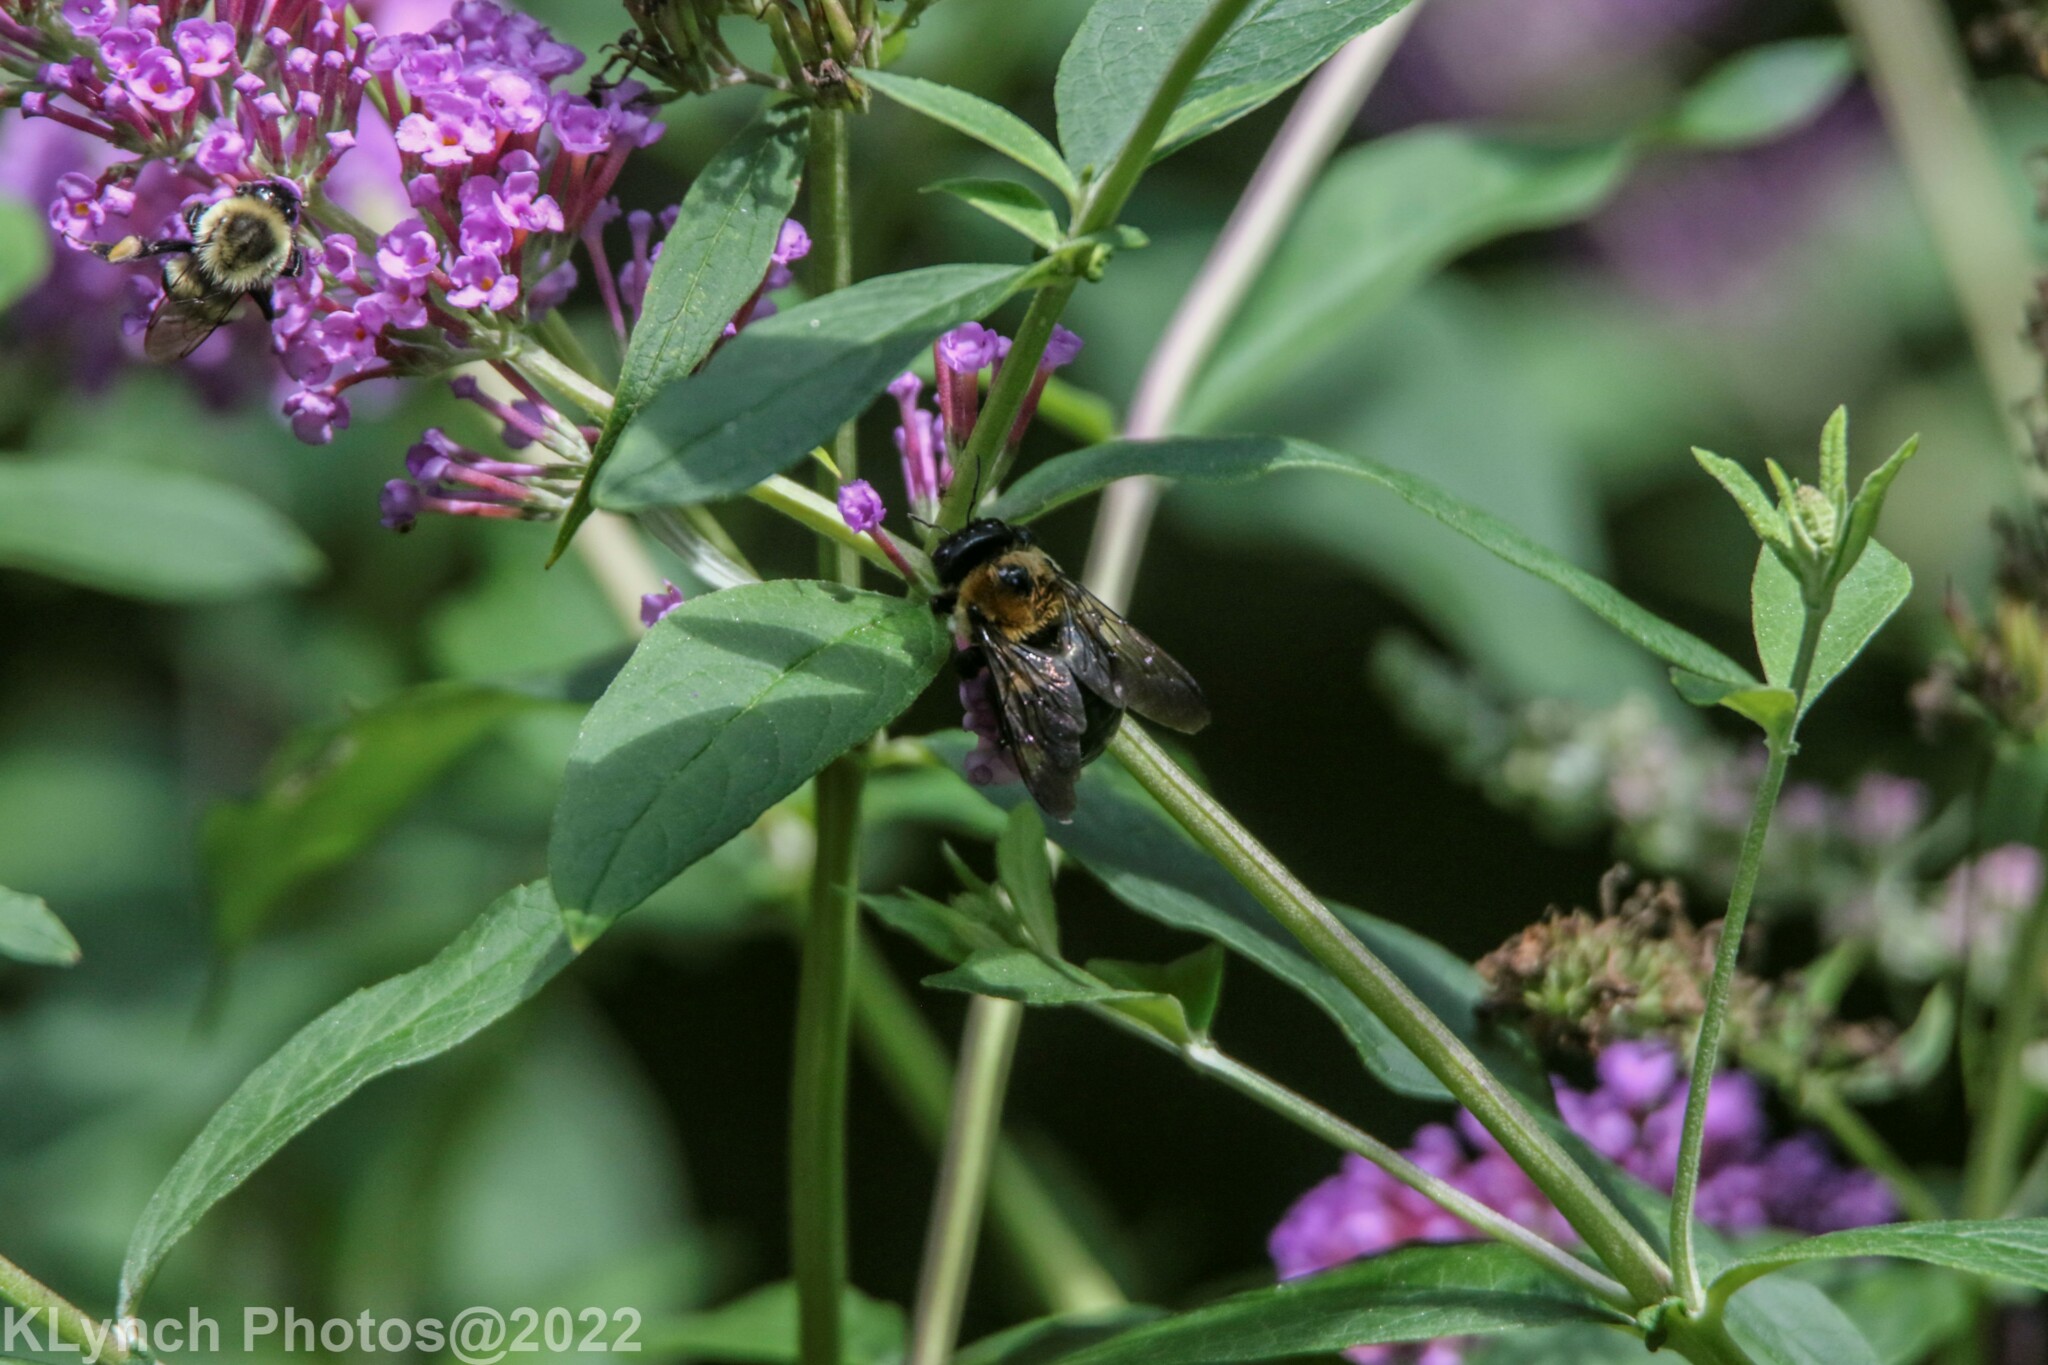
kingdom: Animalia
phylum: Arthropoda
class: Insecta
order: Hymenoptera
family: Apidae
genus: Xylocopa
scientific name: Xylocopa virginica
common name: Carpenter bee
